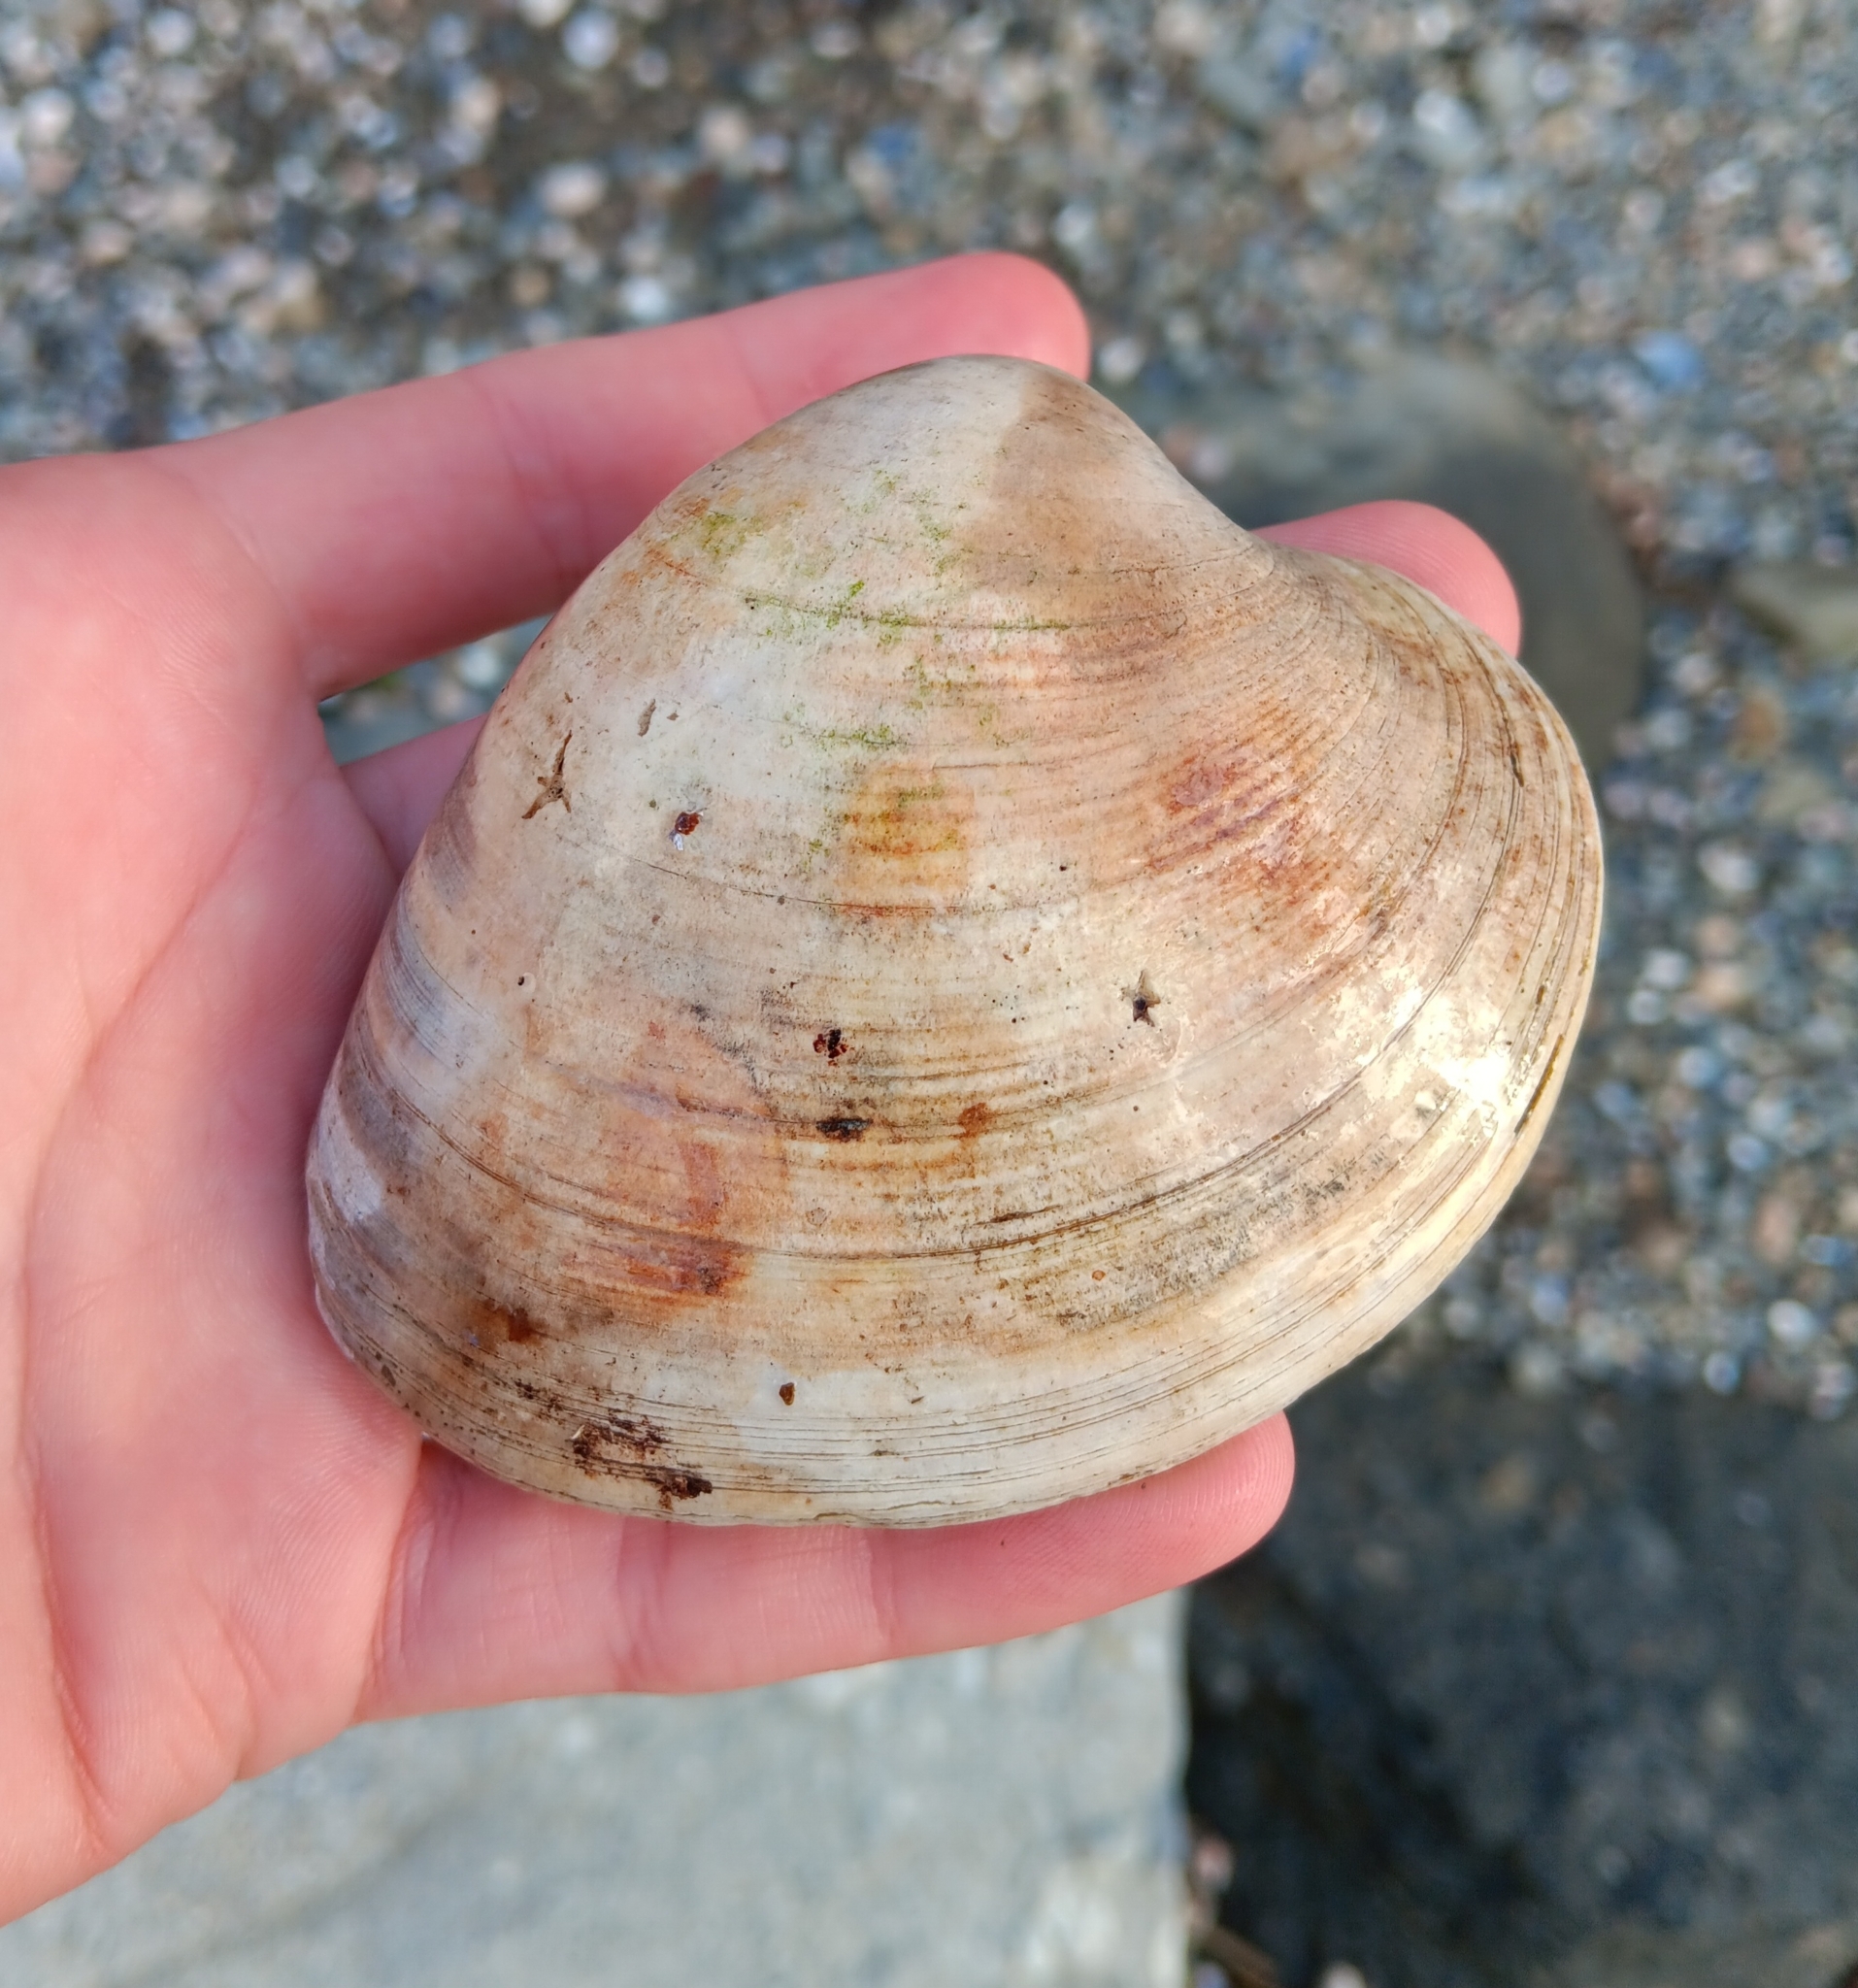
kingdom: Animalia
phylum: Mollusca
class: Bivalvia
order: Venerida
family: Veneridae
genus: Mercenaria
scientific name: Mercenaria mercenaria
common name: American hard-shelled clam
